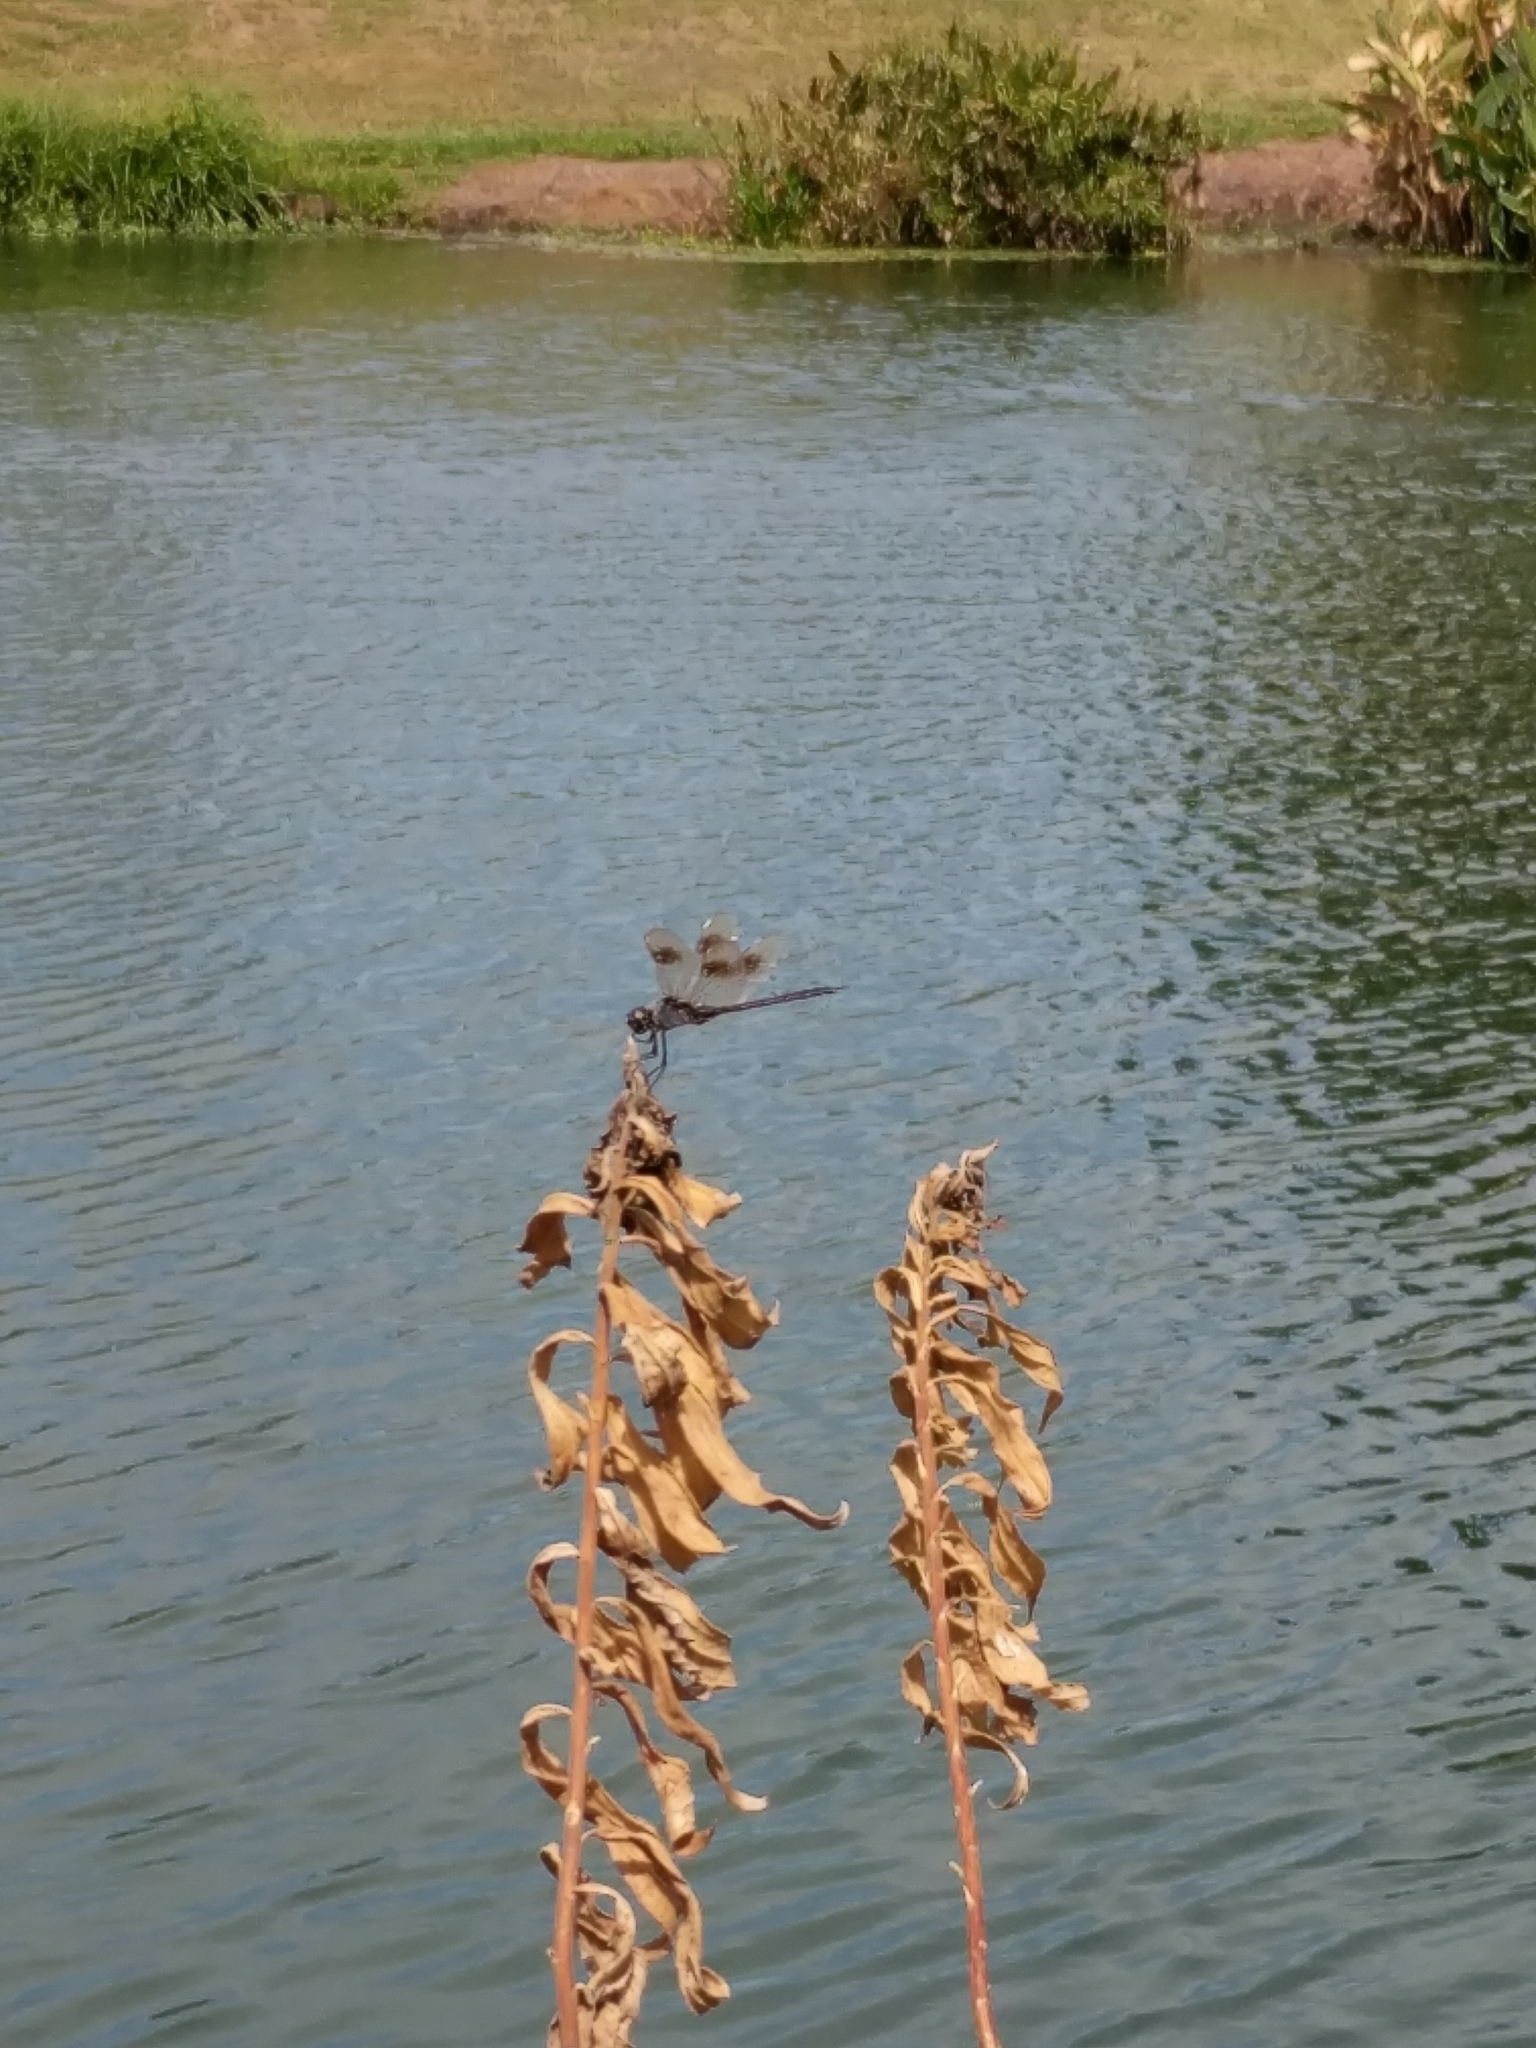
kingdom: Animalia
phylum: Arthropoda
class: Insecta
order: Odonata
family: Libellulidae
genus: Brachymesia
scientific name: Brachymesia gravida
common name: Four-spotted pennant
